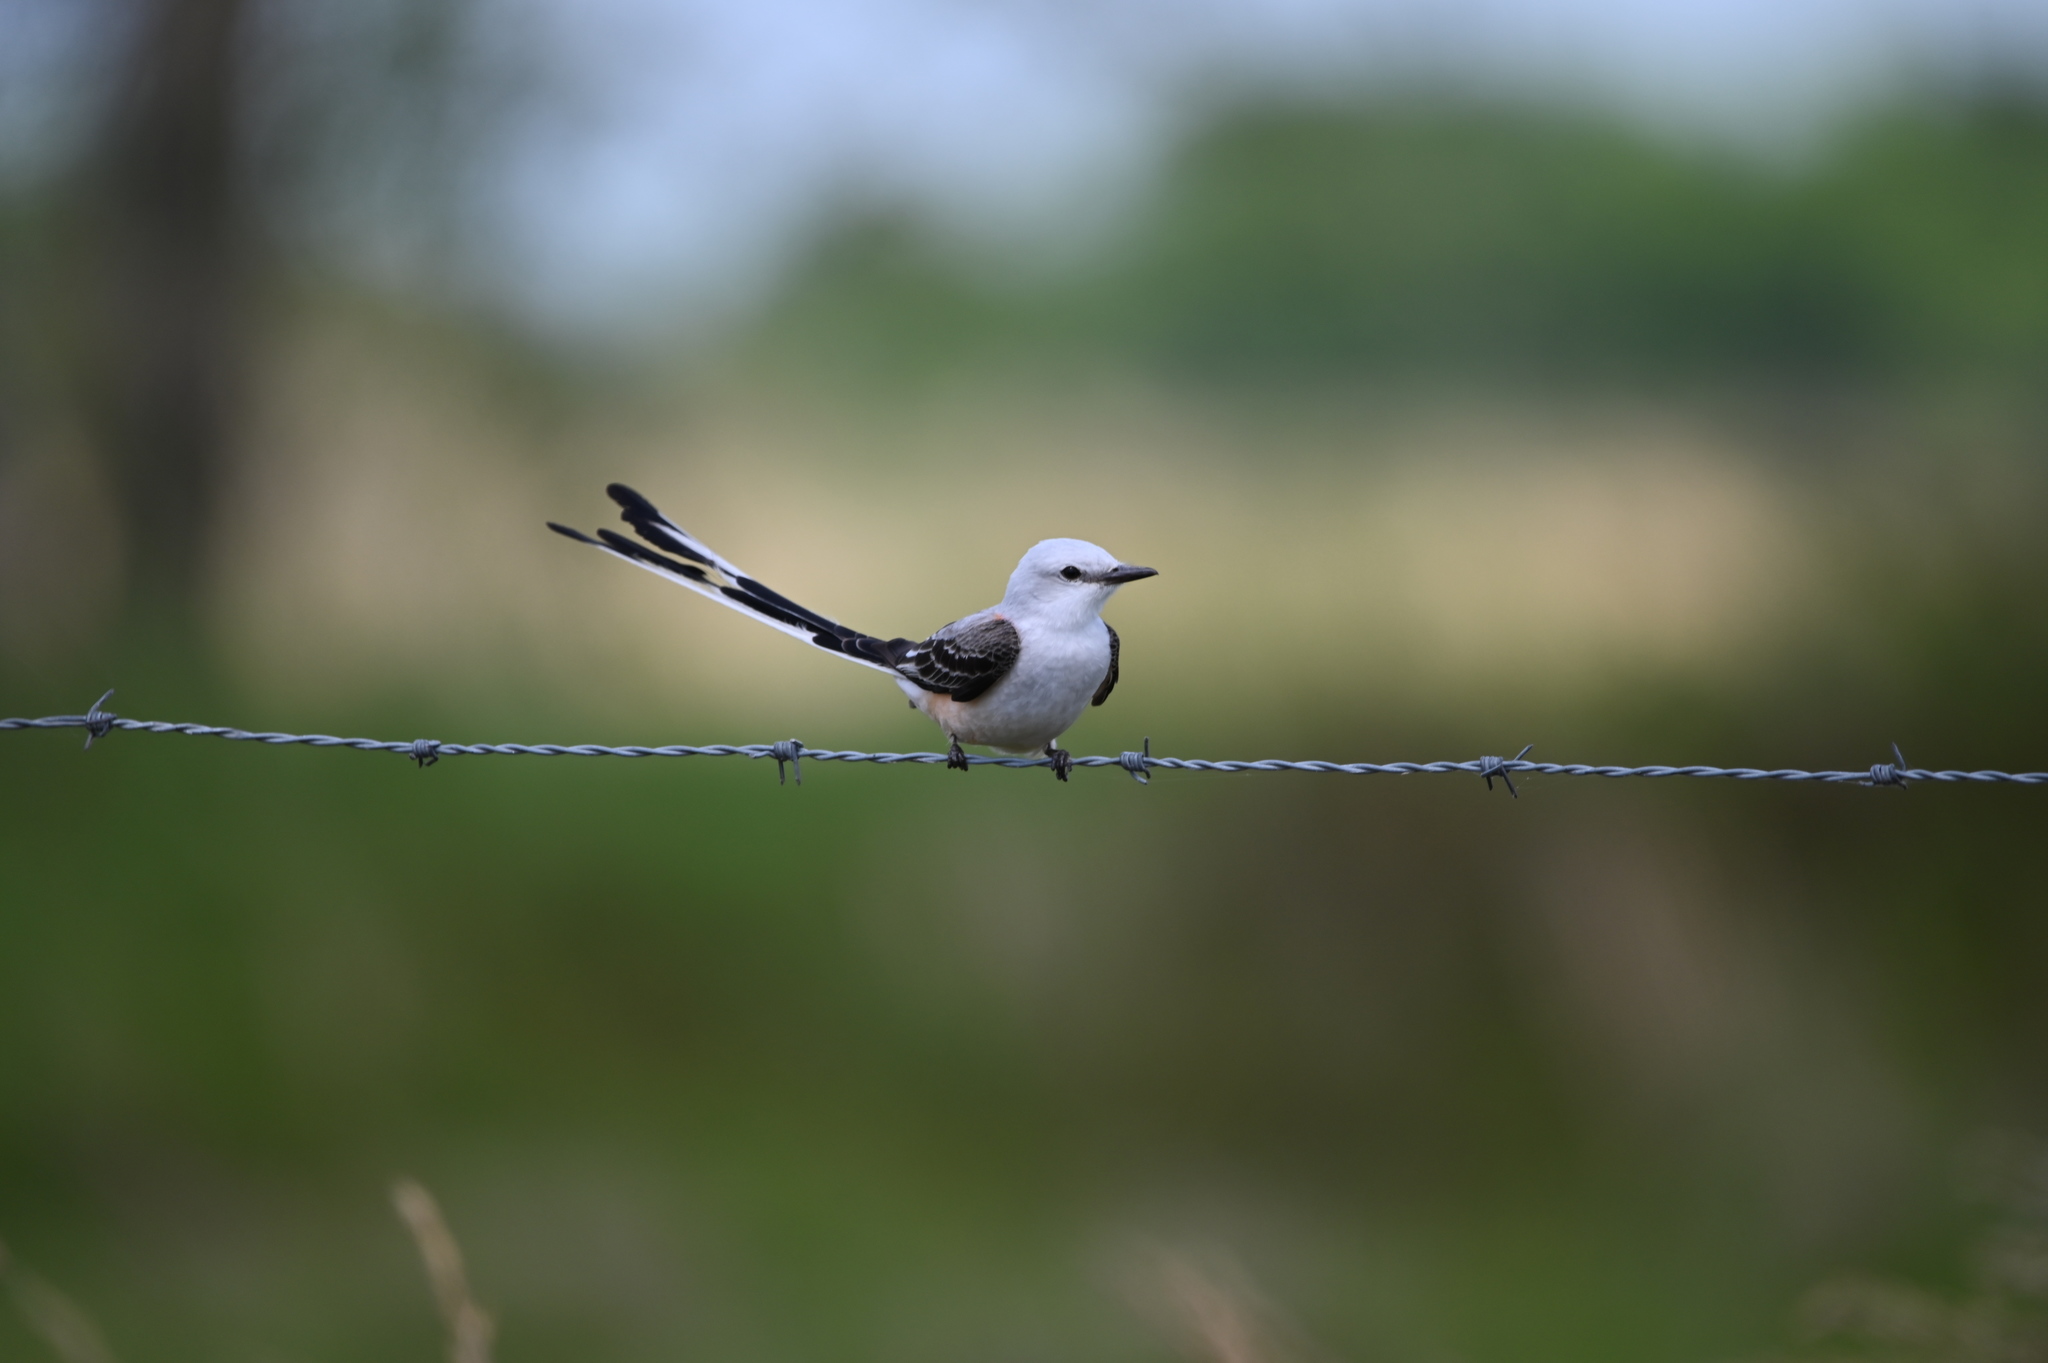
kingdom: Animalia
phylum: Chordata
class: Aves
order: Passeriformes
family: Tyrannidae
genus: Tyrannus
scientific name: Tyrannus forficatus
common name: Scissor-tailed flycatcher
